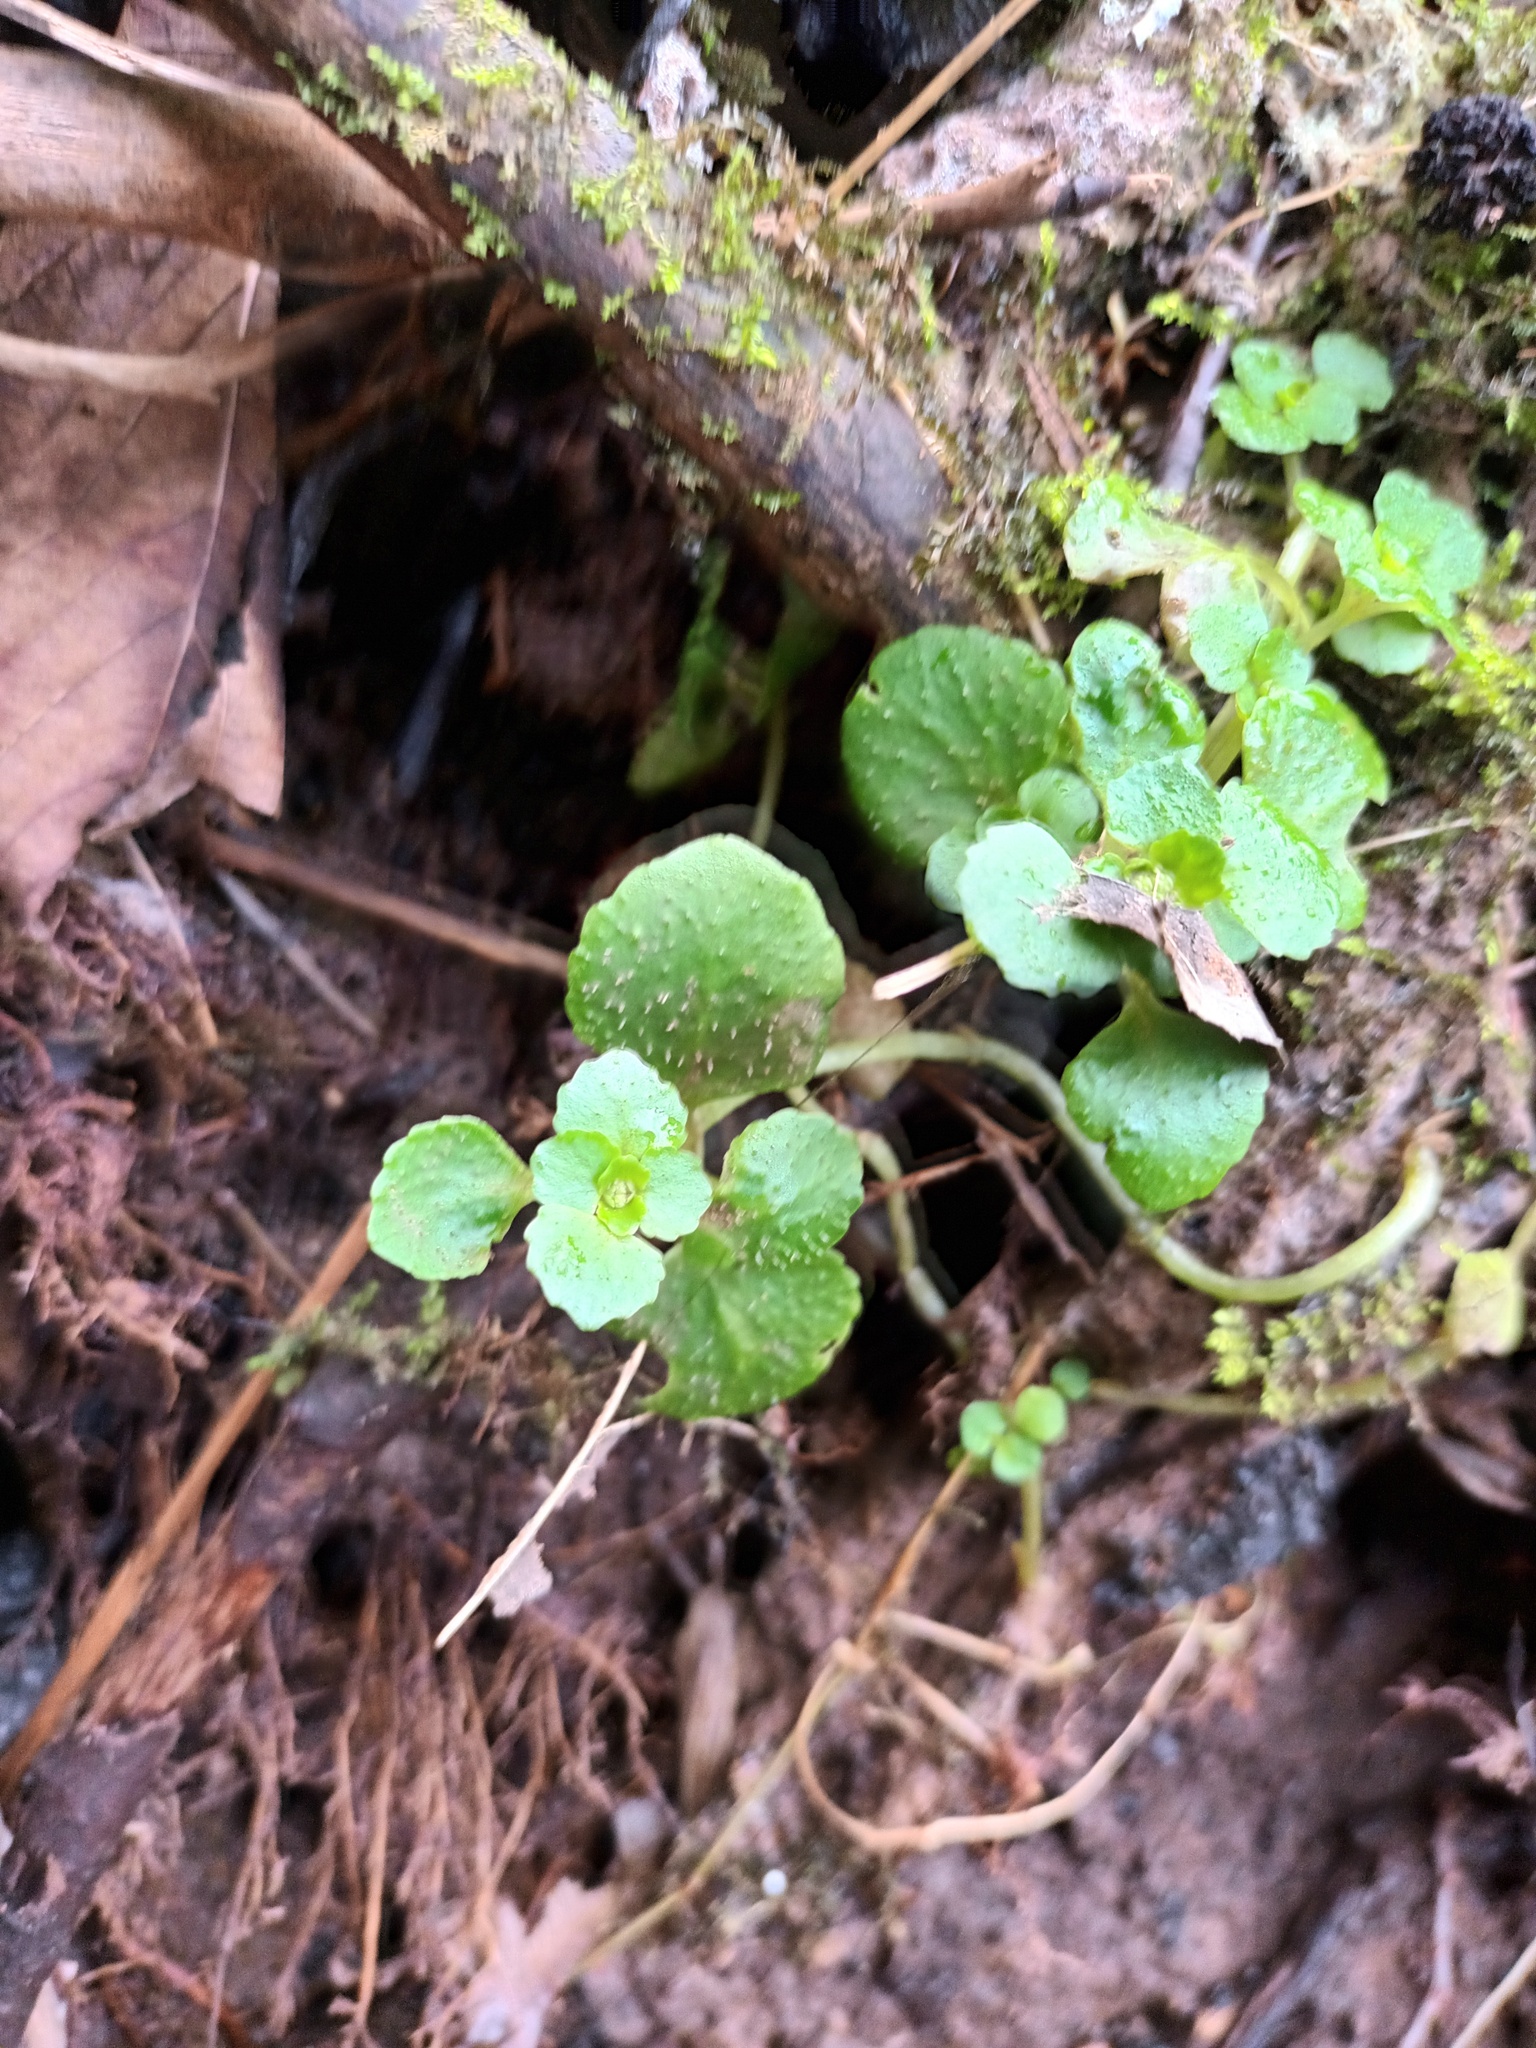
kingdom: Plantae
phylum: Tracheophyta
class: Magnoliopsida
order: Saxifragales
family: Saxifragaceae
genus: Chrysosplenium
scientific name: Chrysosplenium oppositifolium
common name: Opposite-leaved golden-saxifrage
